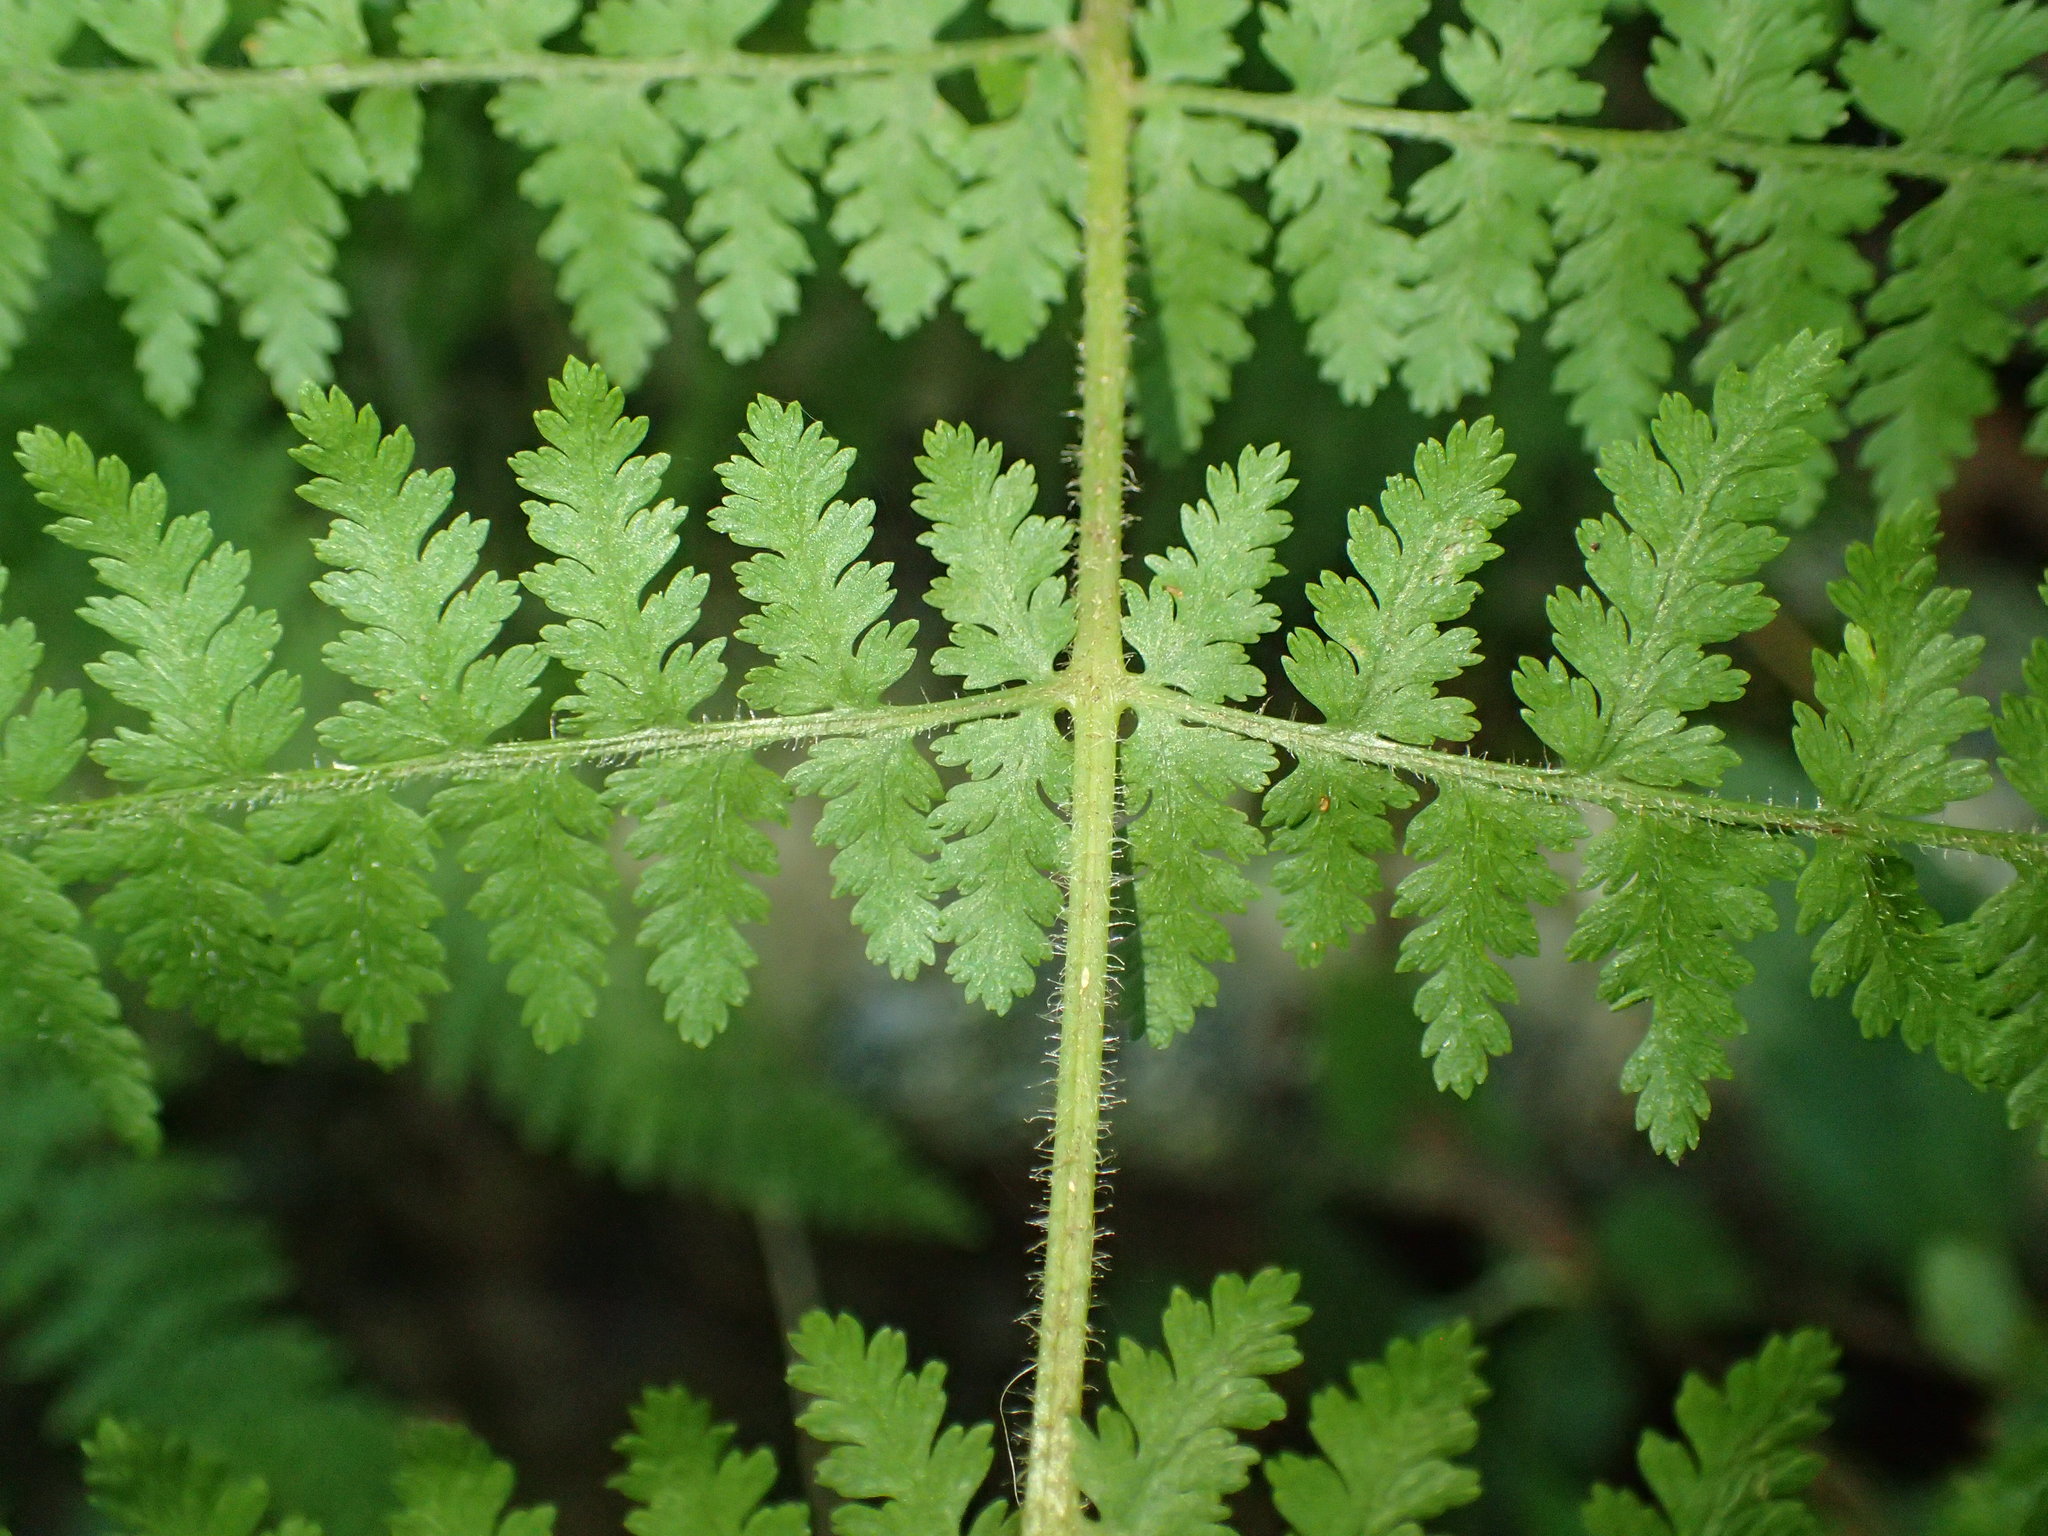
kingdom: Plantae
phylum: Tracheophyta
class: Polypodiopsida
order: Polypodiales
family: Dennstaedtiaceae
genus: Sitobolium
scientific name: Sitobolium punctilobum
